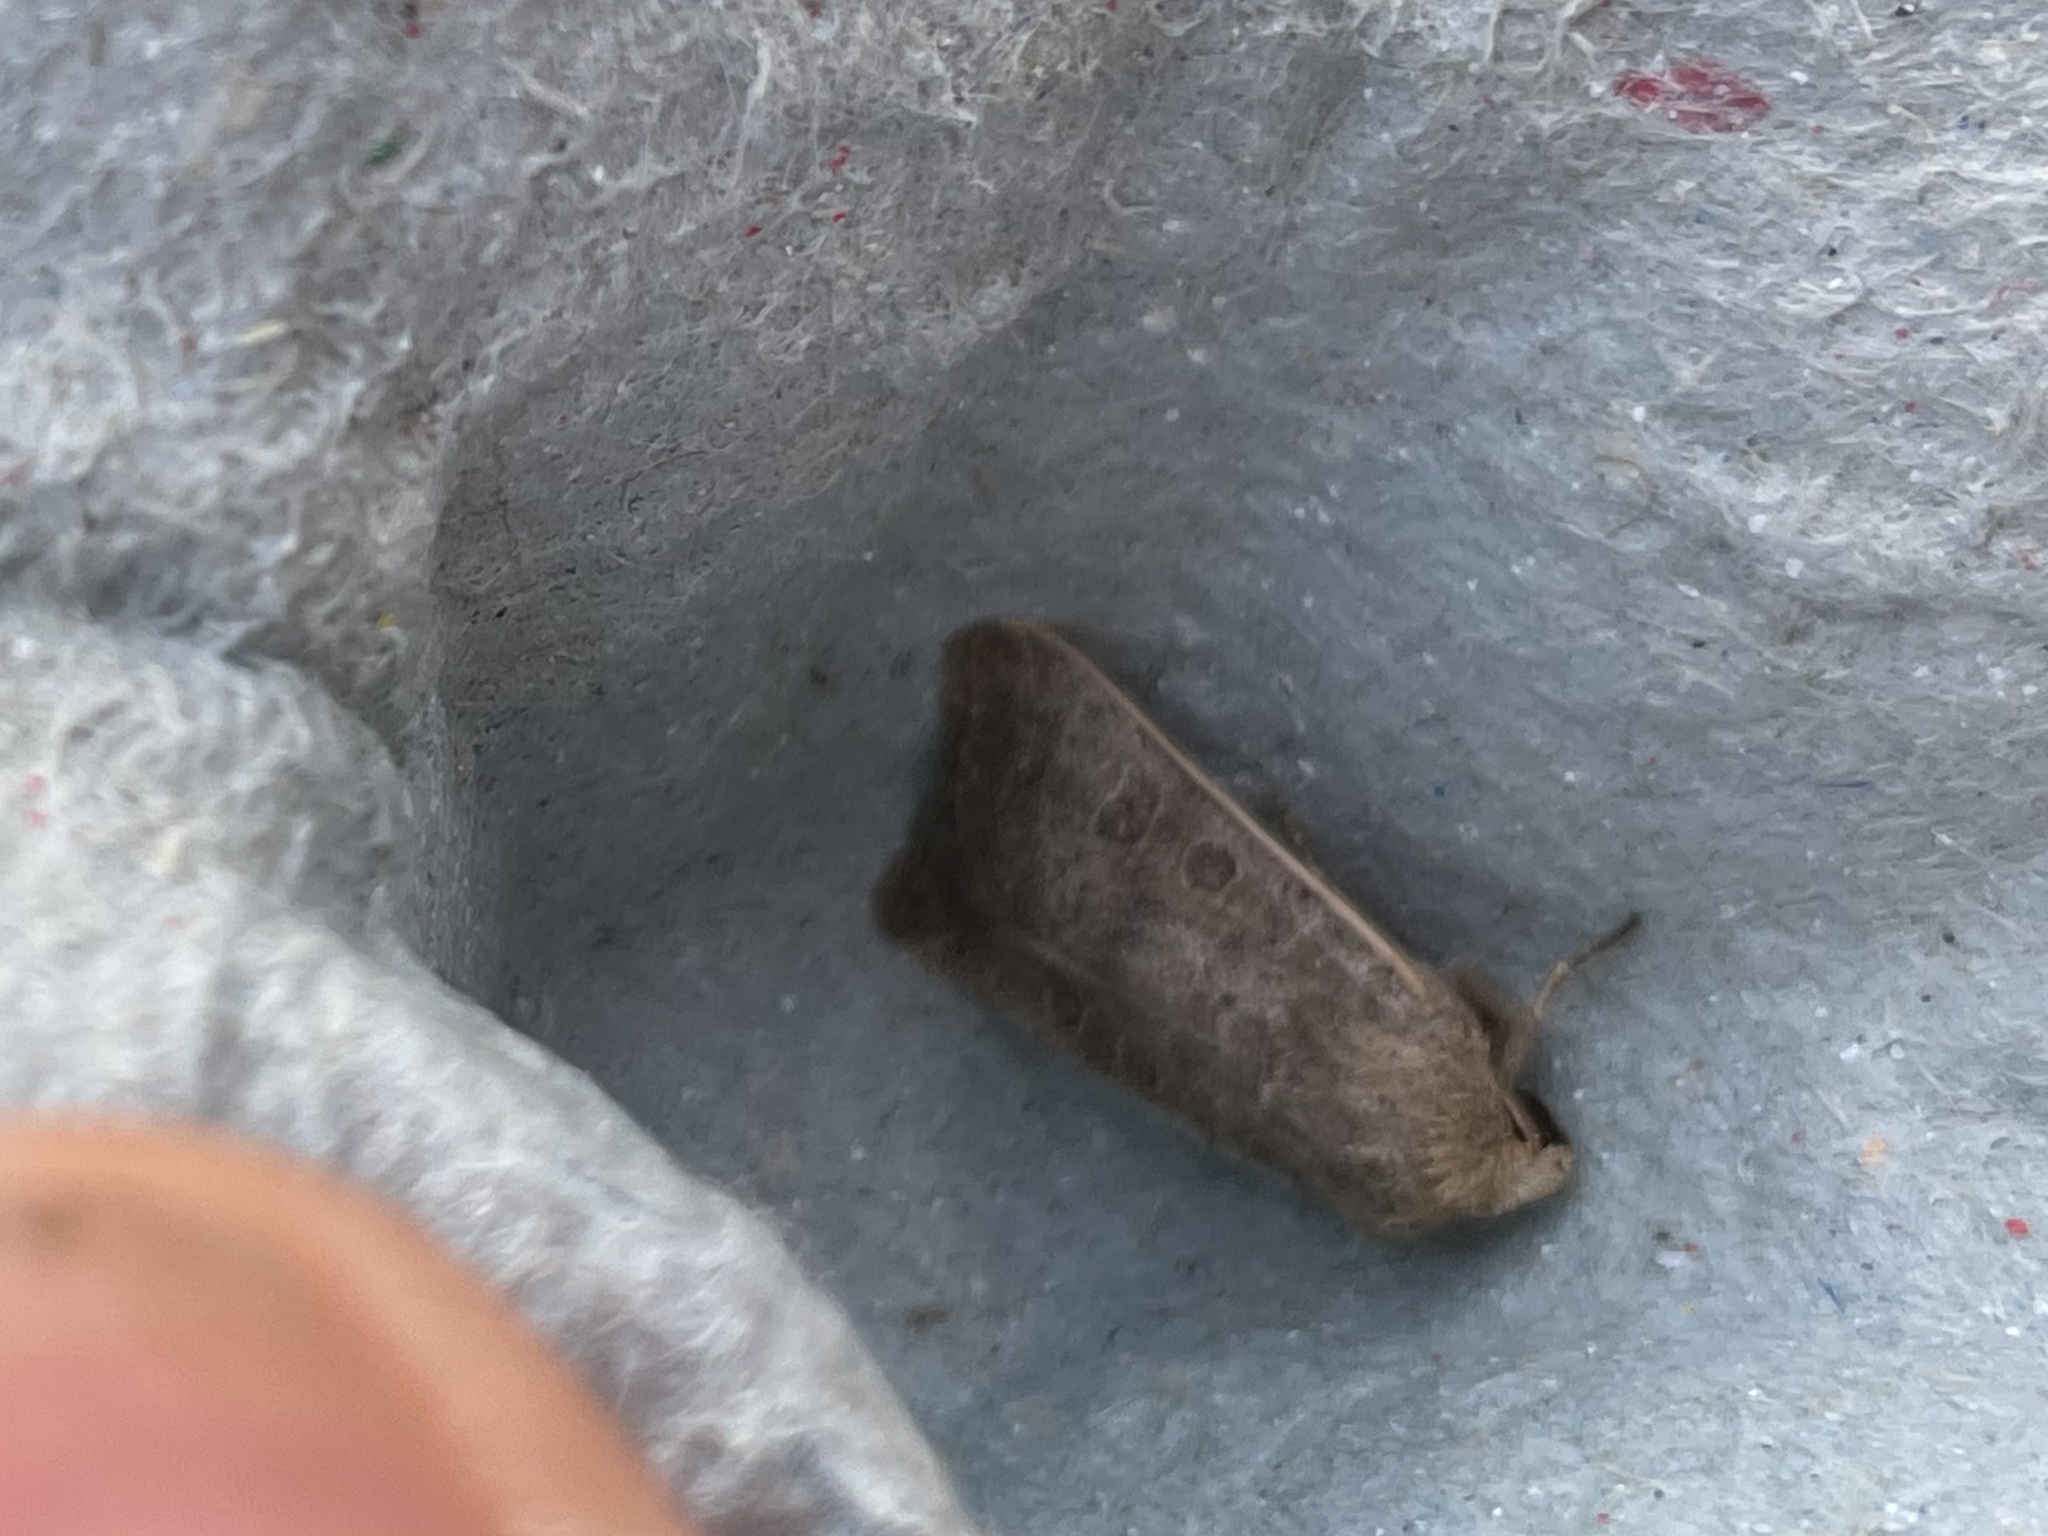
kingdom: Animalia
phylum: Arthropoda
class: Insecta
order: Lepidoptera
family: Noctuidae
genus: Hoplodrina
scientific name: Hoplodrina ambigua
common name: Vine's rustic
